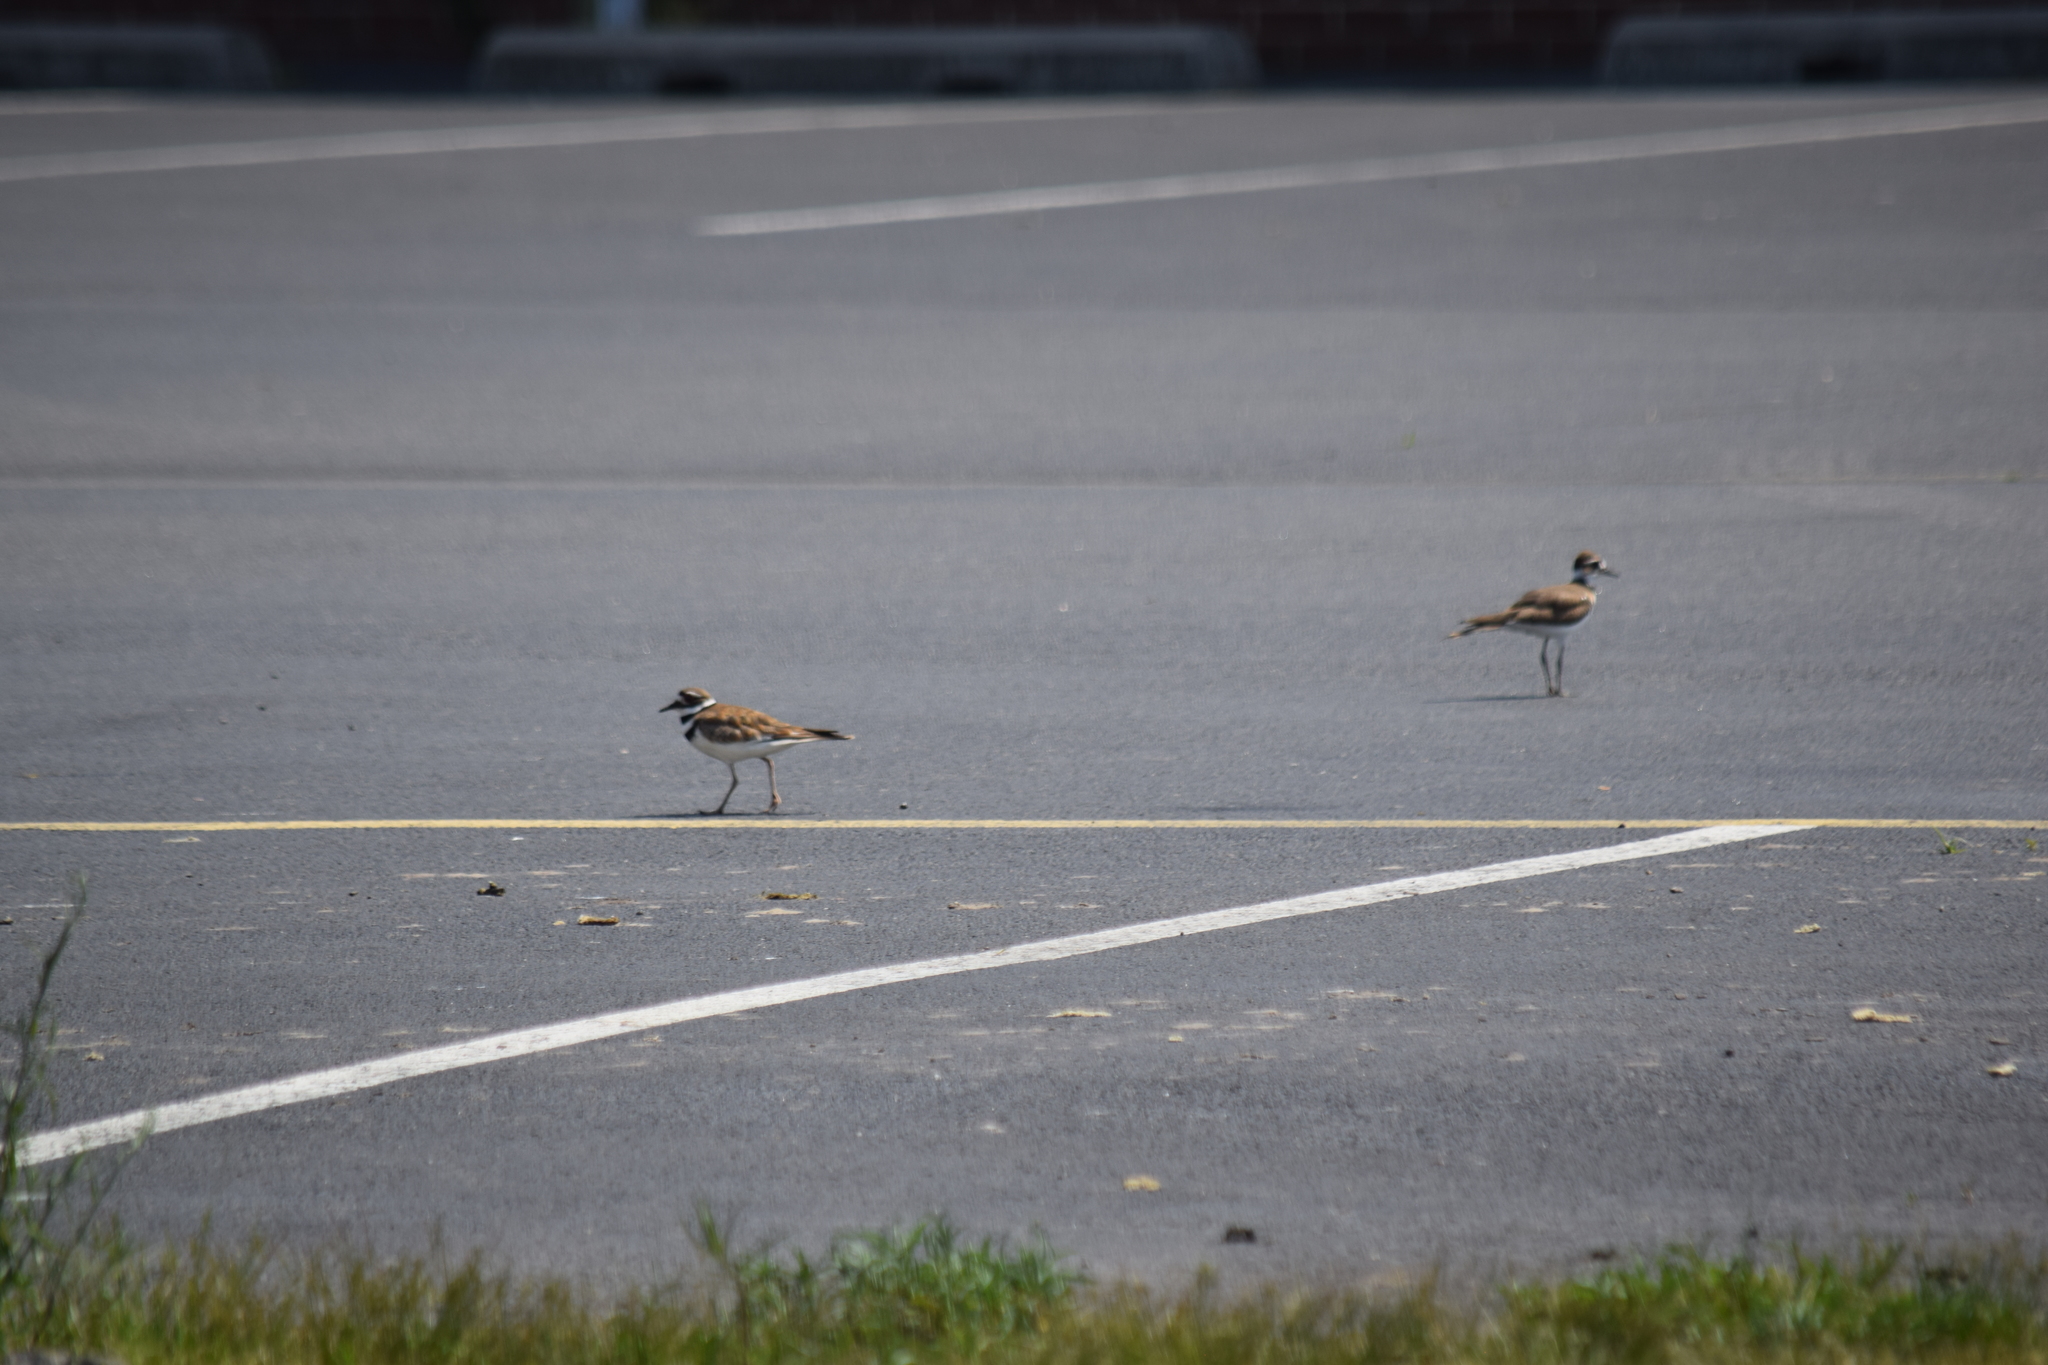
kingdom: Animalia
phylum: Chordata
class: Aves
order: Charadriiformes
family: Charadriidae
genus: Charadrius
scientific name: Charadrius vociferus
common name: Killdeer
